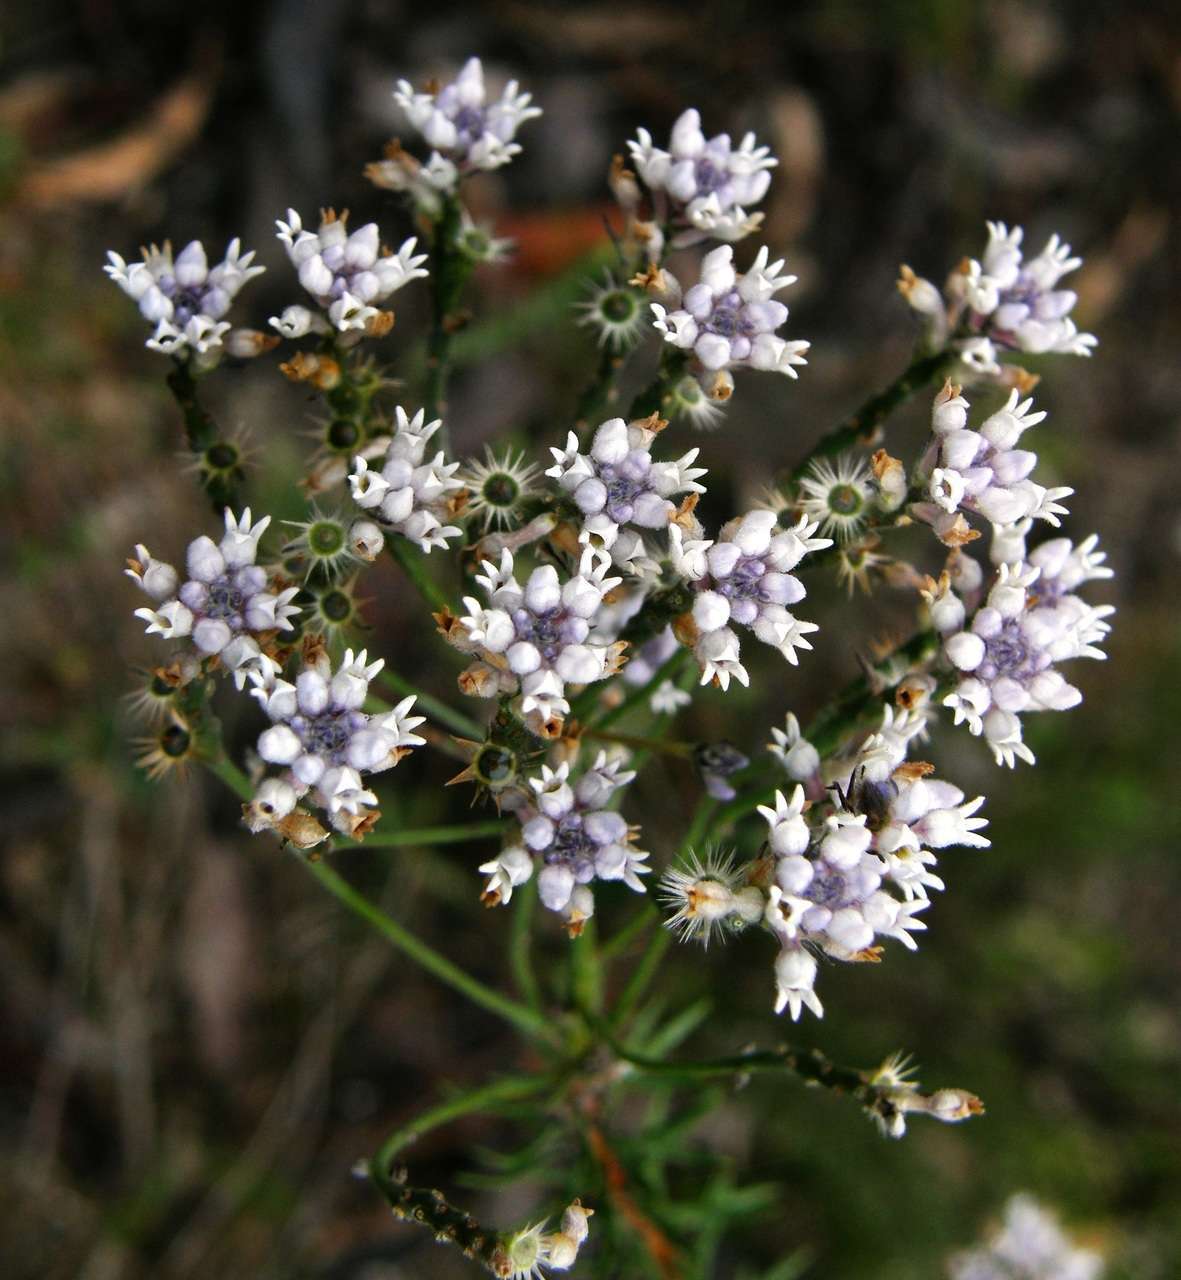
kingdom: Plantae
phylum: Tracheophyta
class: Magnoliopsida
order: Proteales
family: Proteaceae
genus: Conospermum
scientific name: Conospermum patens
